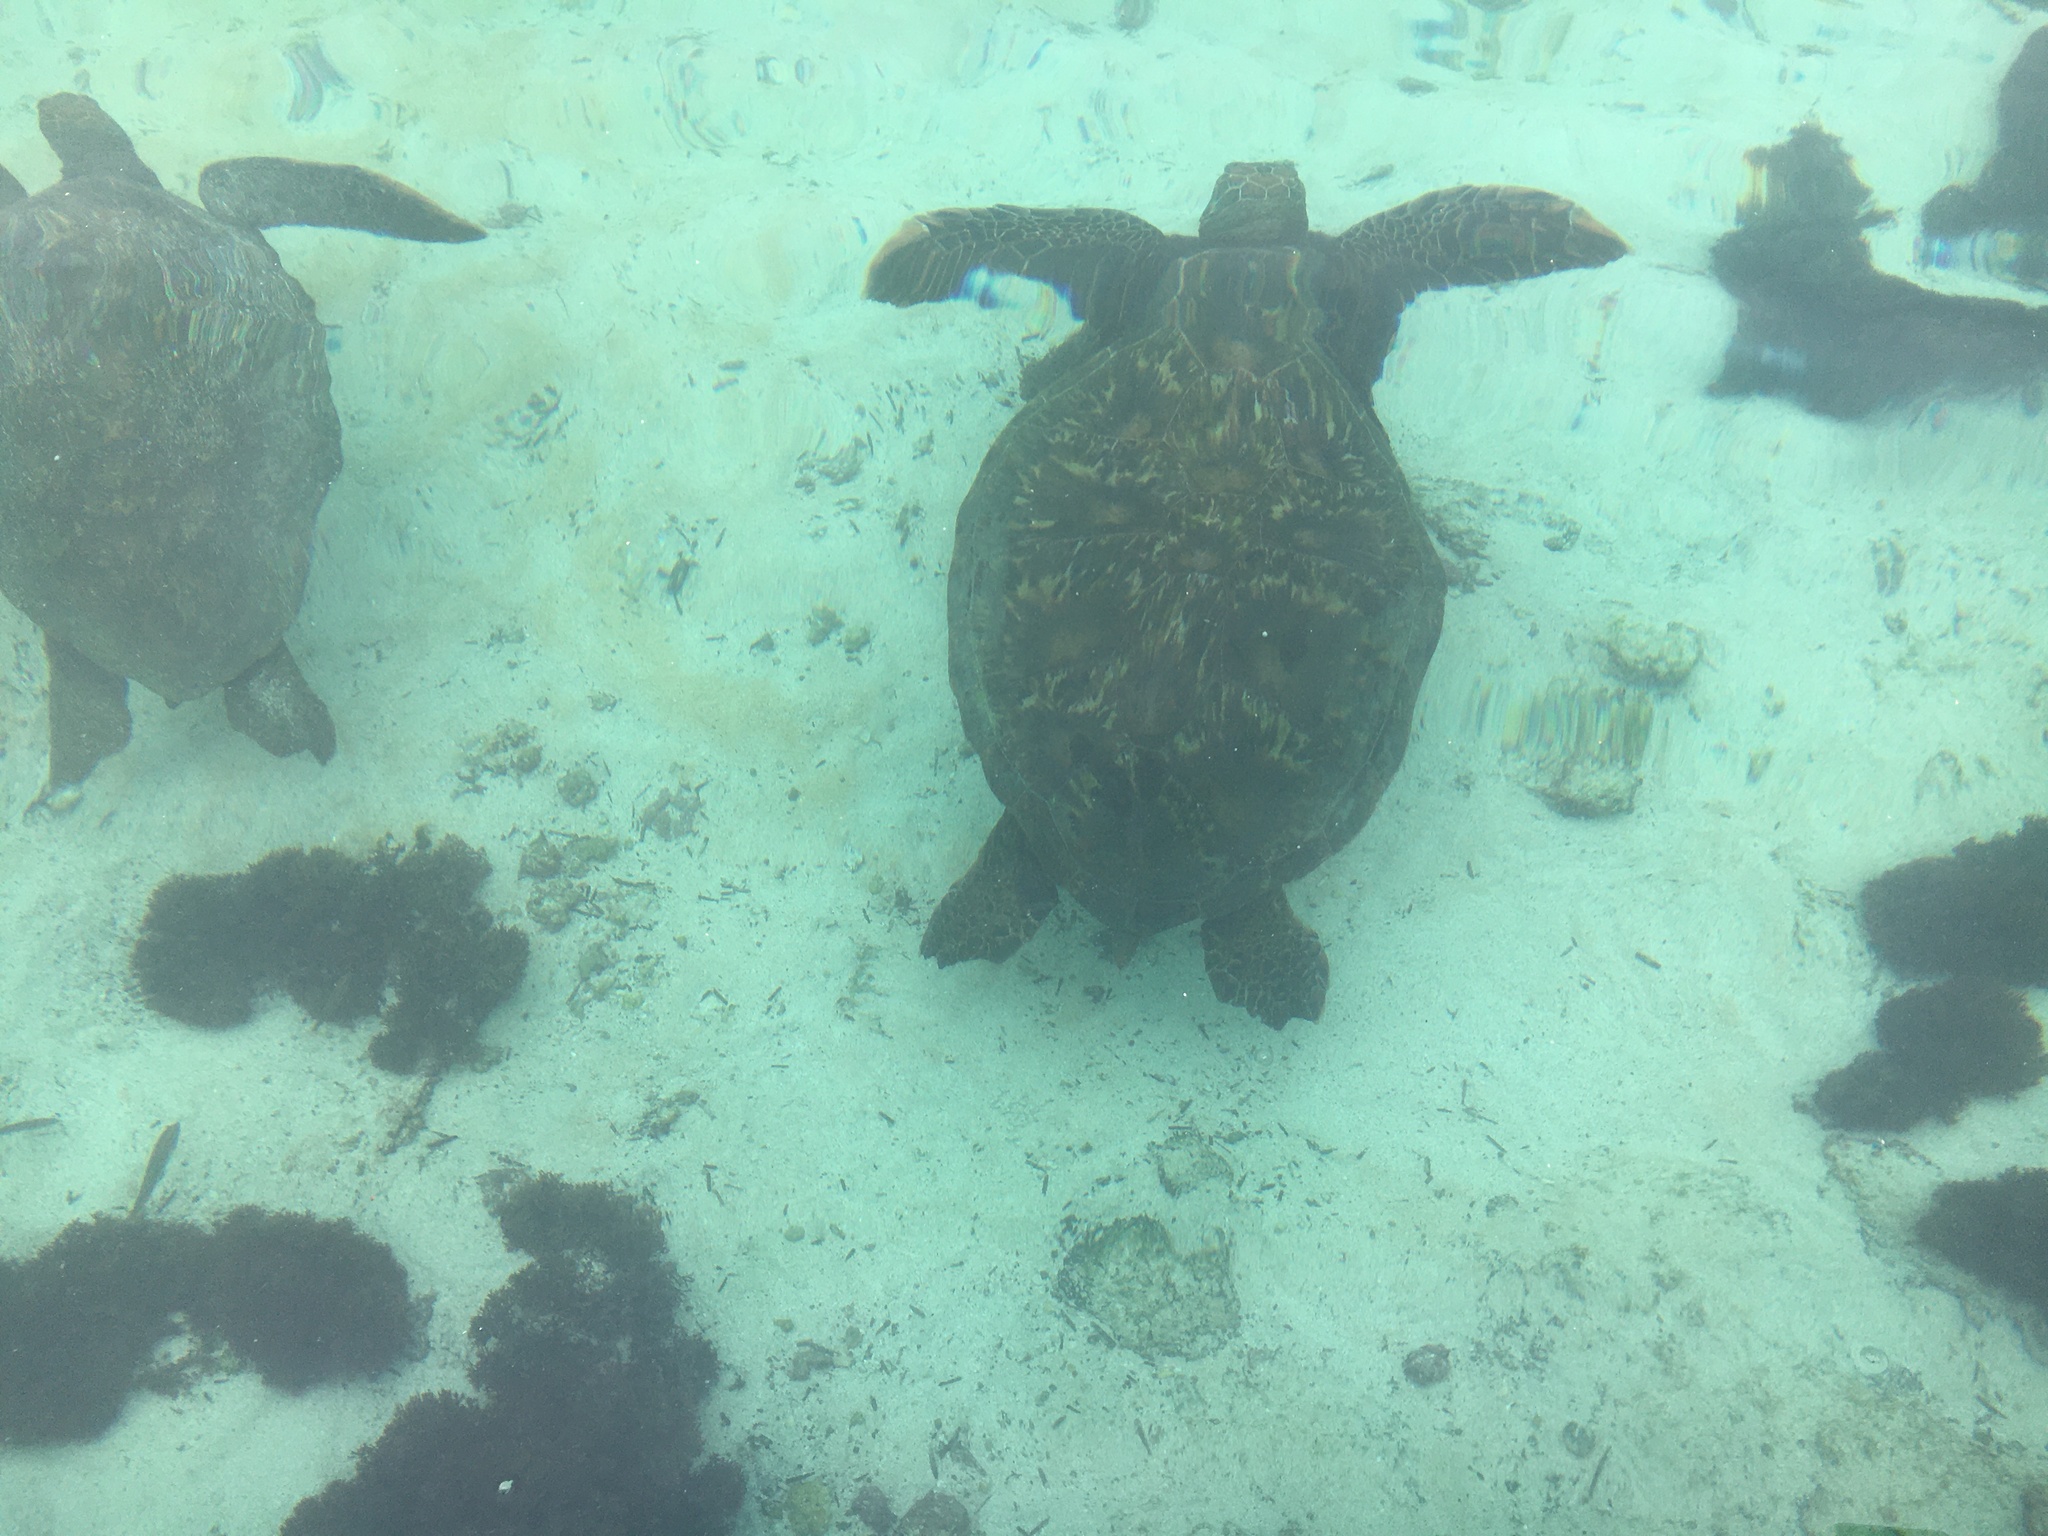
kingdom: Animalia
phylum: Chordata
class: Testudines
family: Cheloniidae
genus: Chelonia
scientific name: Chelonia mydas
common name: Green turtle
